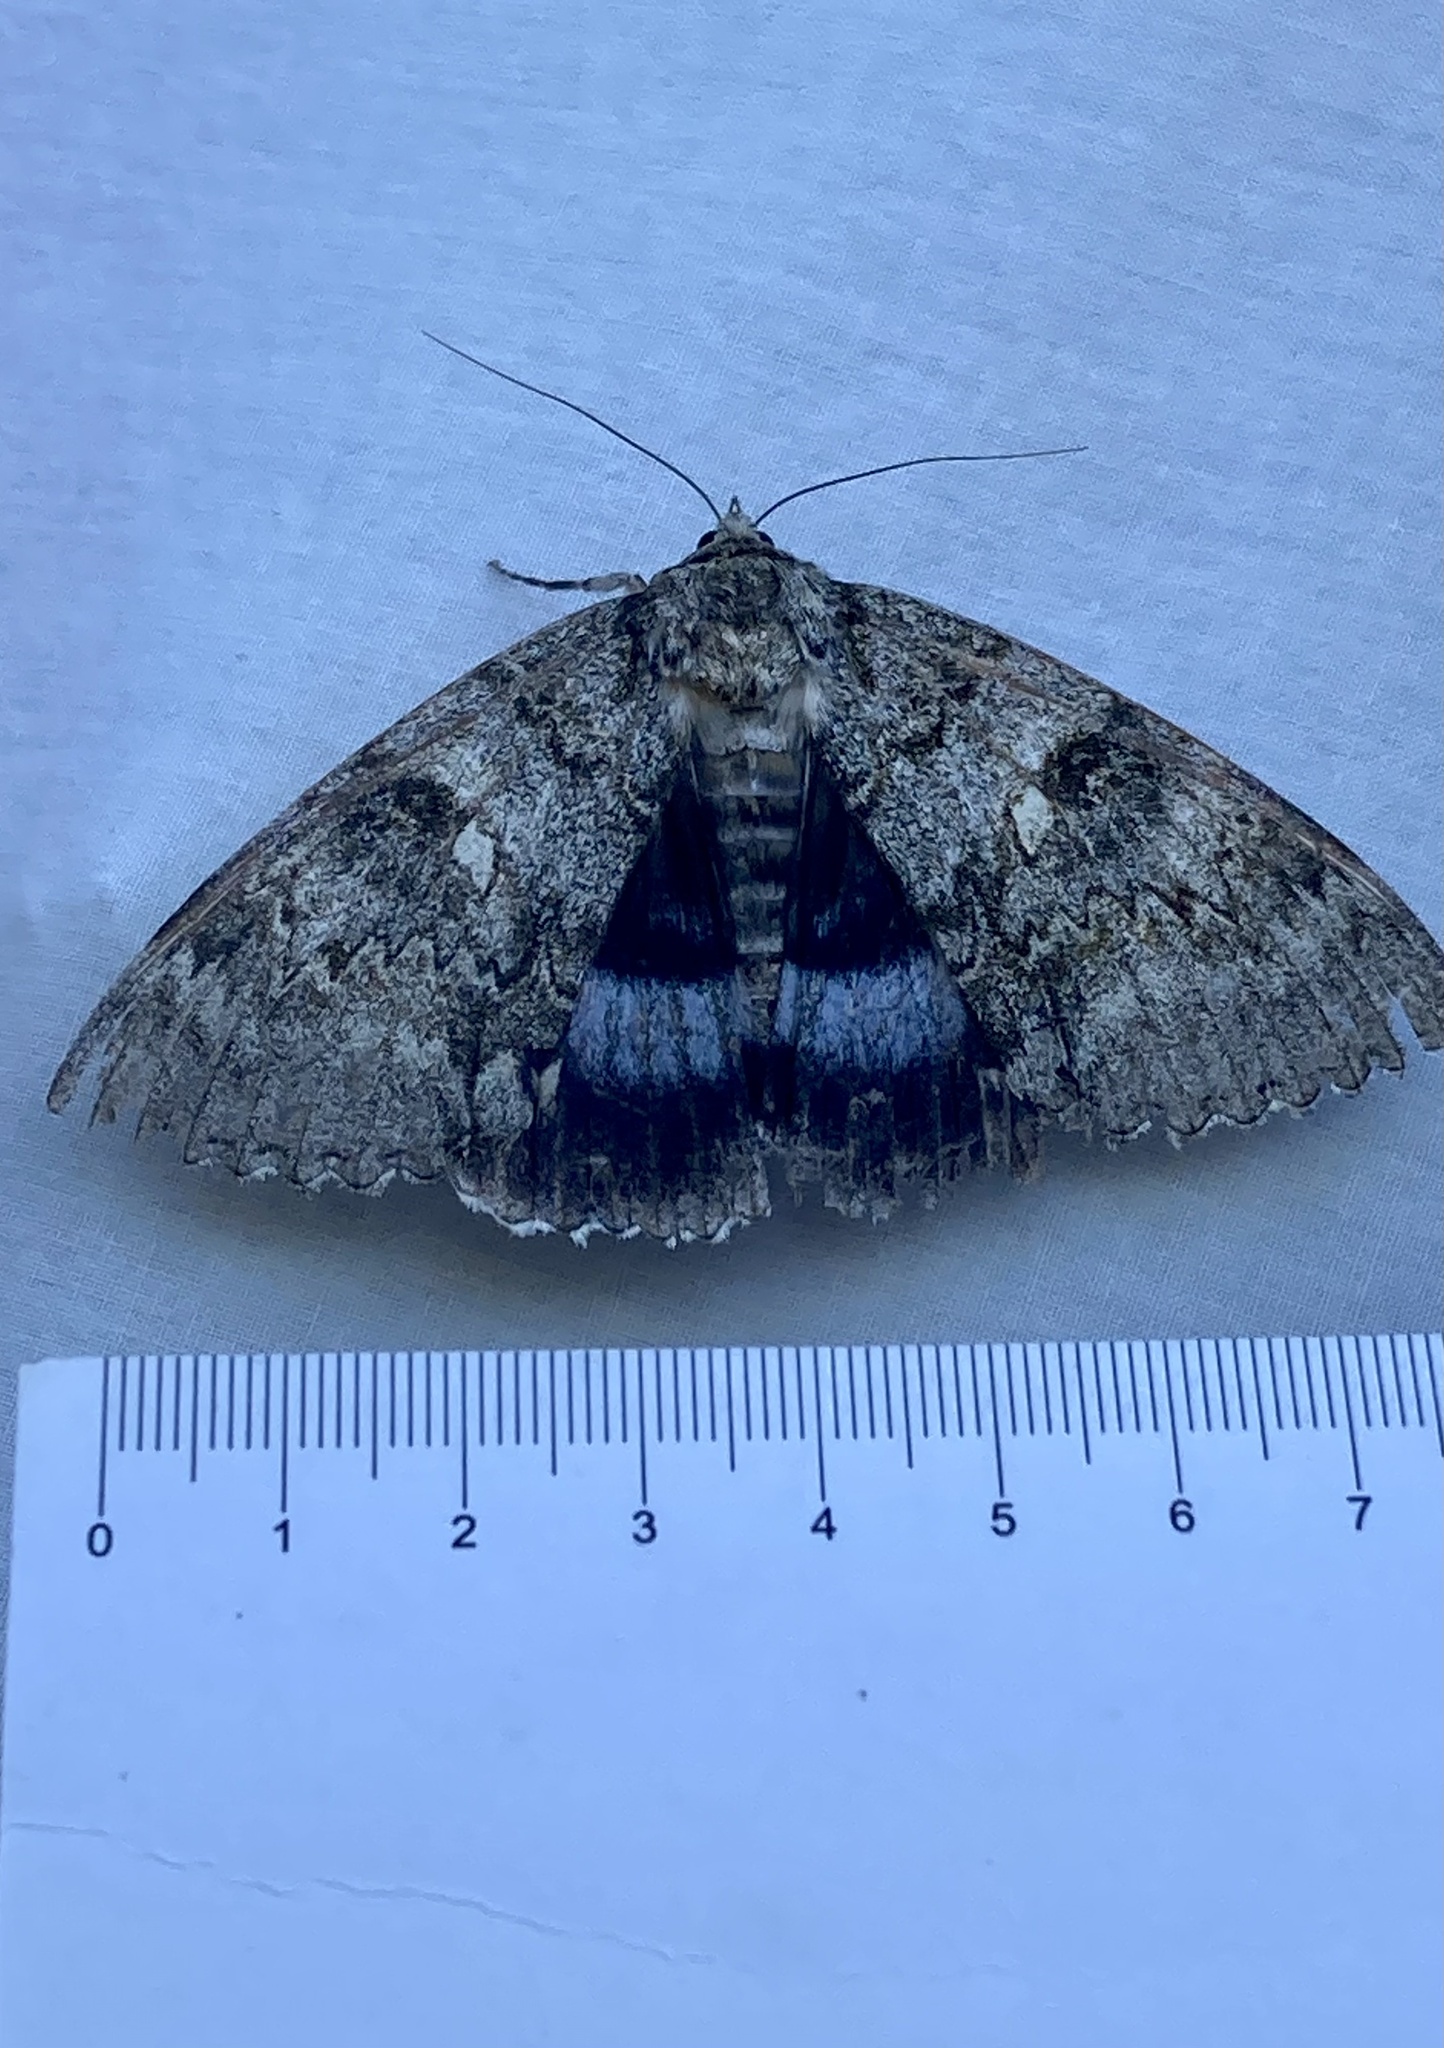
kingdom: Animalia
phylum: Arthropoda
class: Insecta
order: Lepidoptera
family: Erebidae
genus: Catocala
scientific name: Catocala fraxini
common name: Clifden nonpareil
